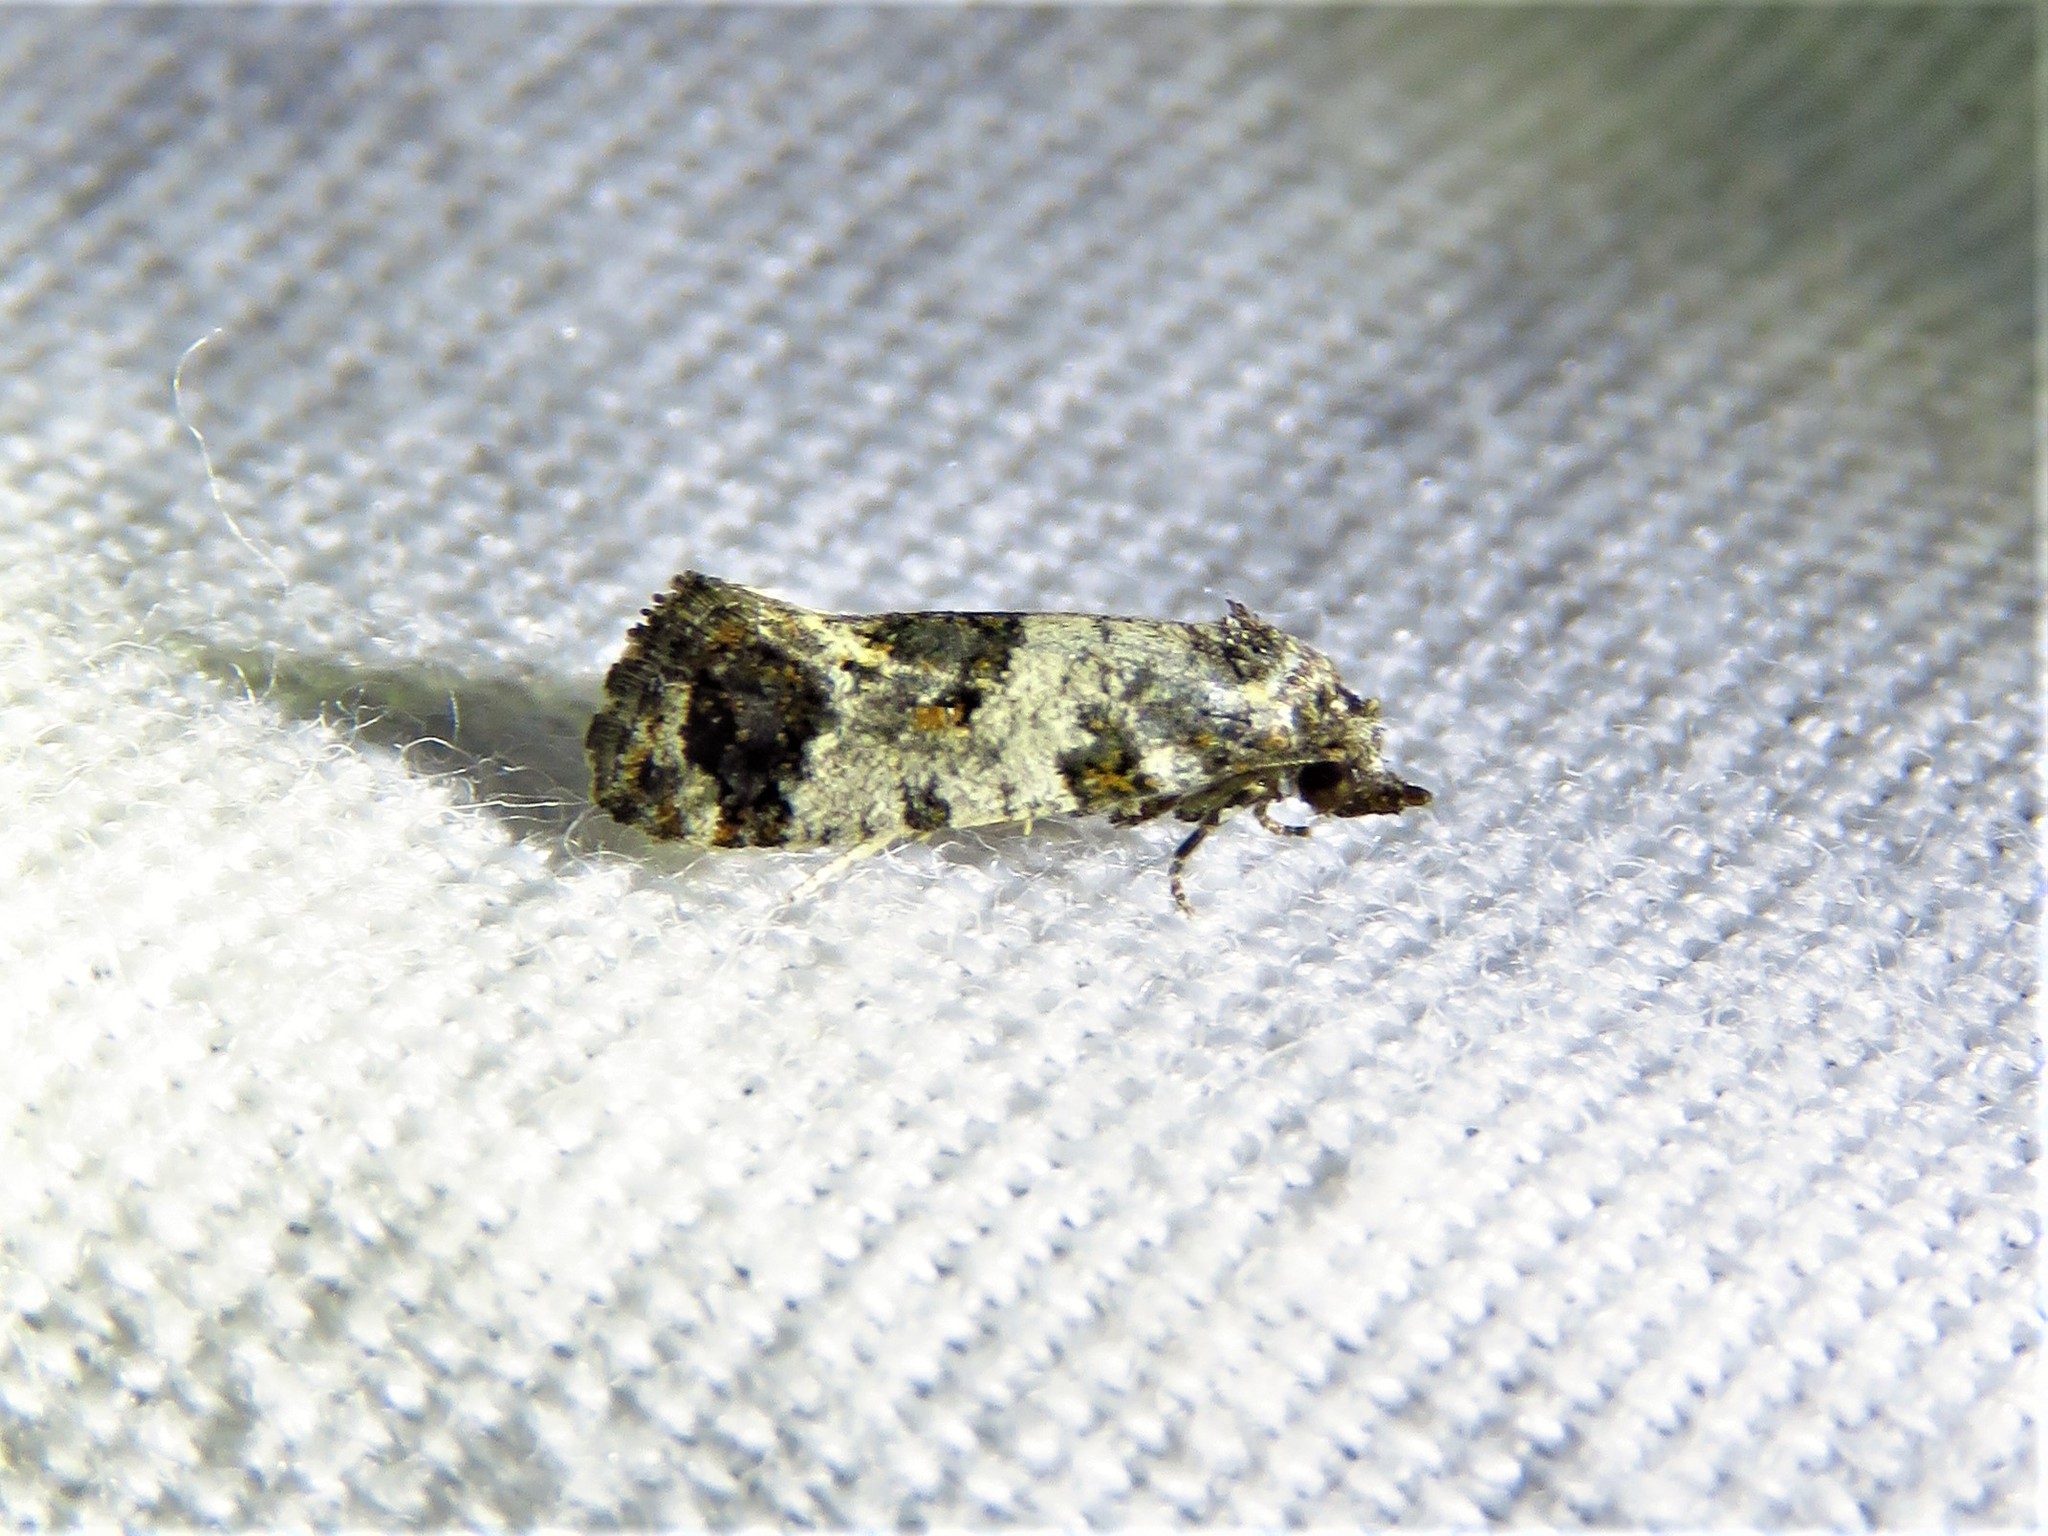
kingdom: Animalia
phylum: Arthropoda
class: Insecta
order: Lepidoptera
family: Tortricidae
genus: Rudenia
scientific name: Rudenia leguminana
